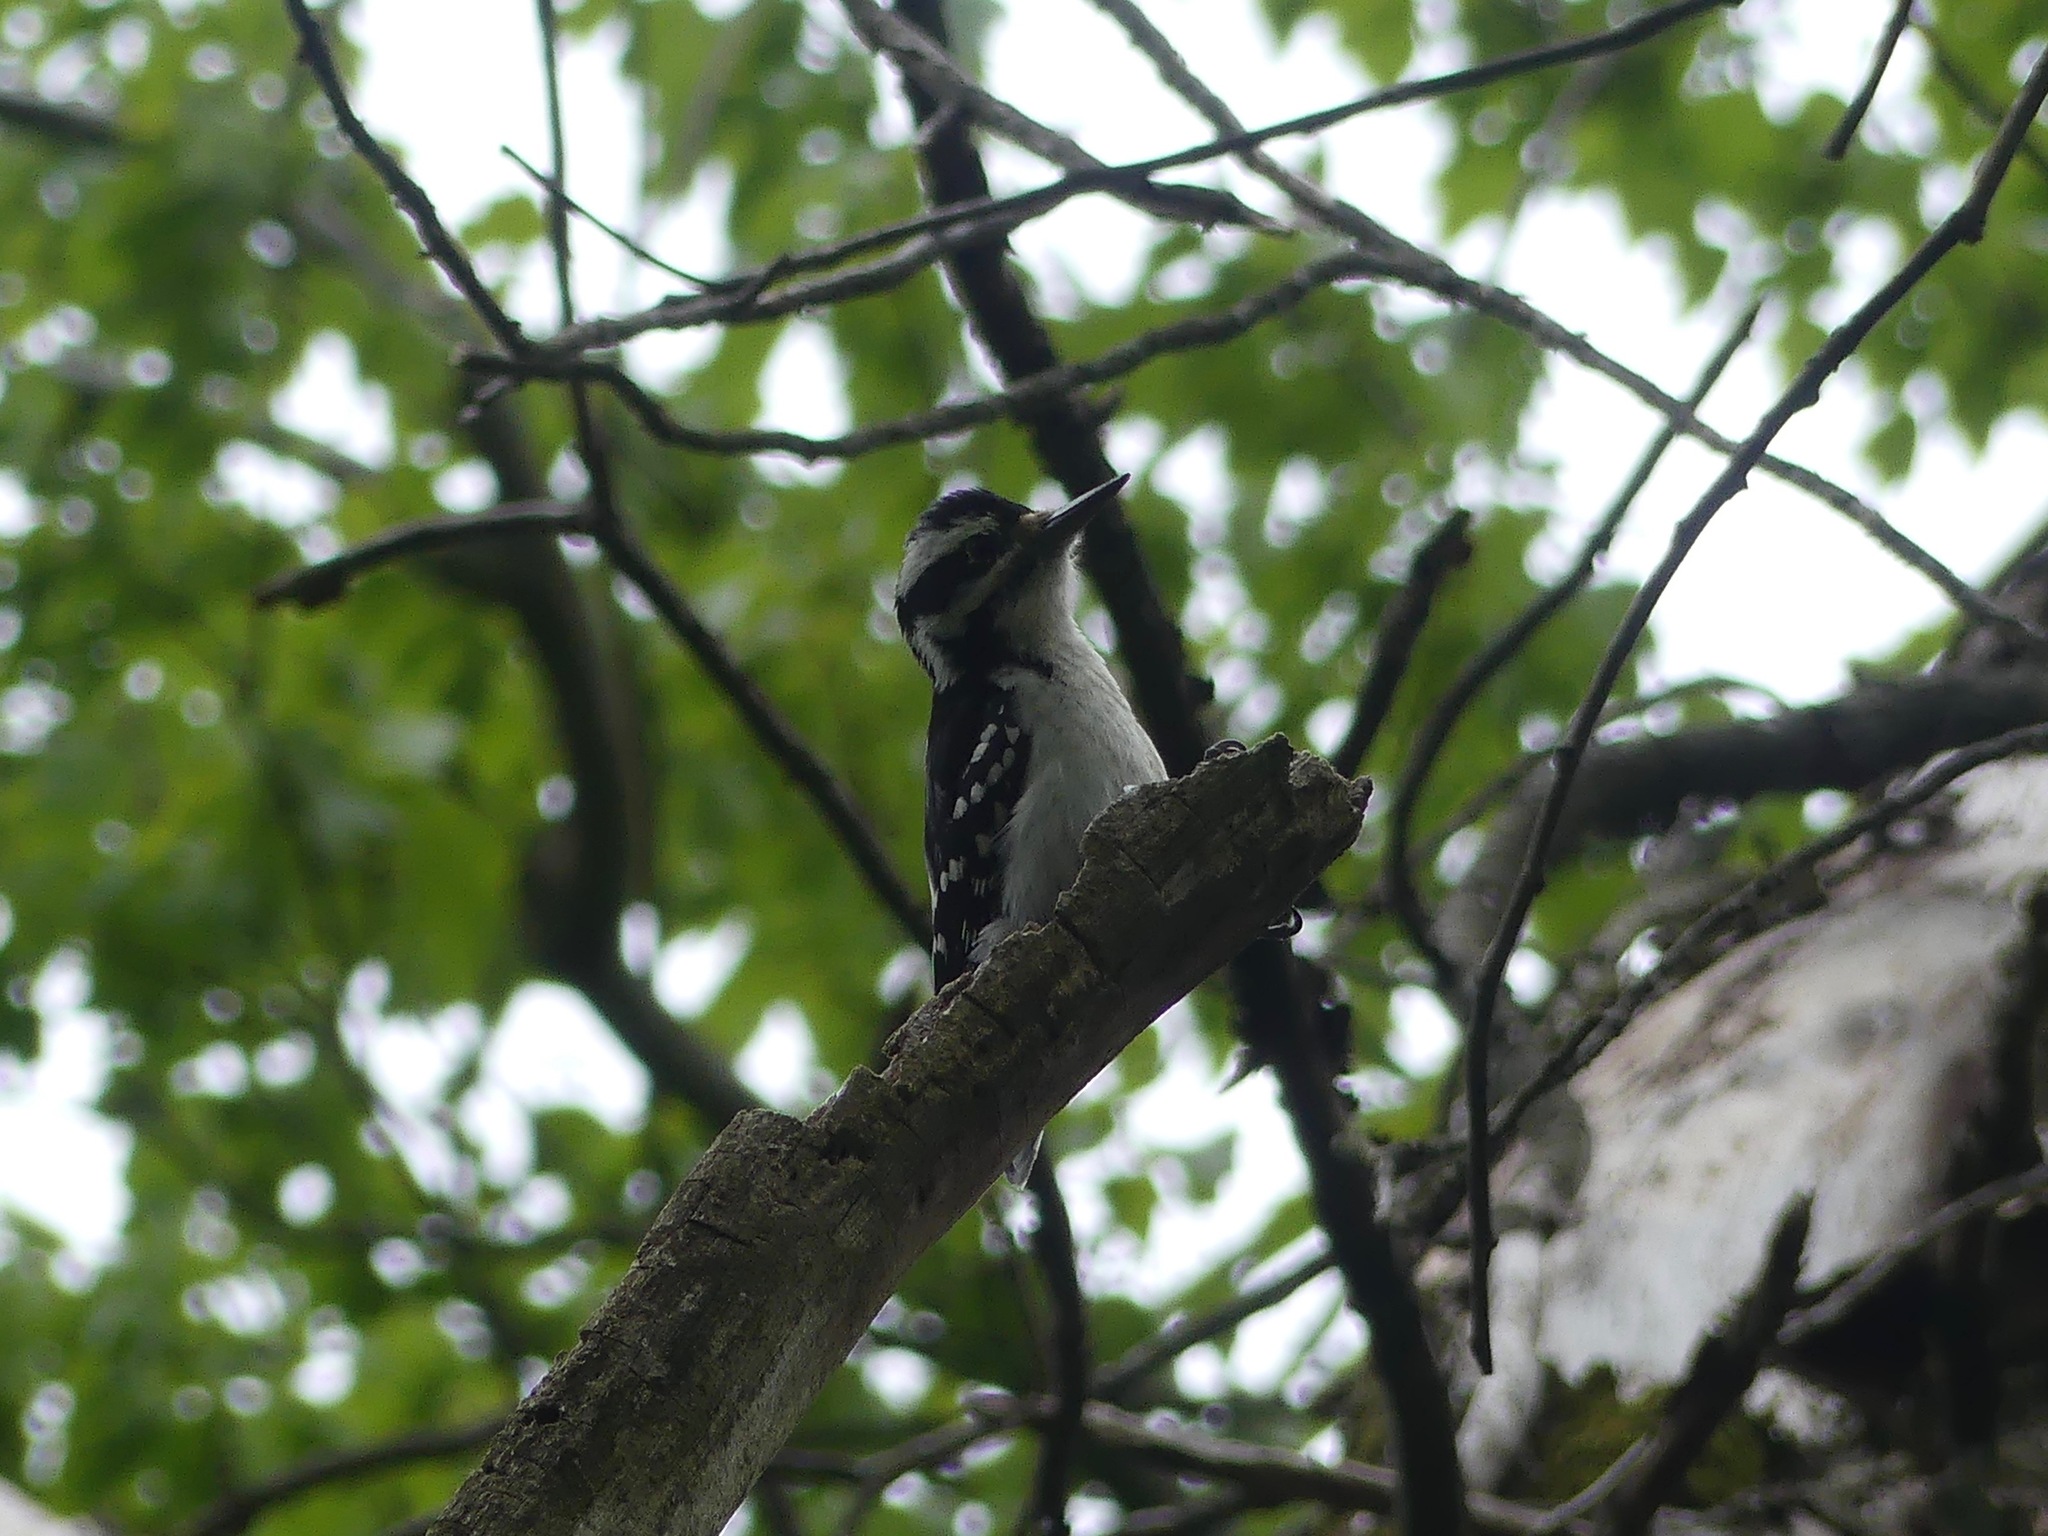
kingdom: Animalia
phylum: Chordata
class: Aves
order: Piciformes
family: Picidae
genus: Leuconotopicus
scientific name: Leuconotopicus villosus
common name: Hairy woodpecker
